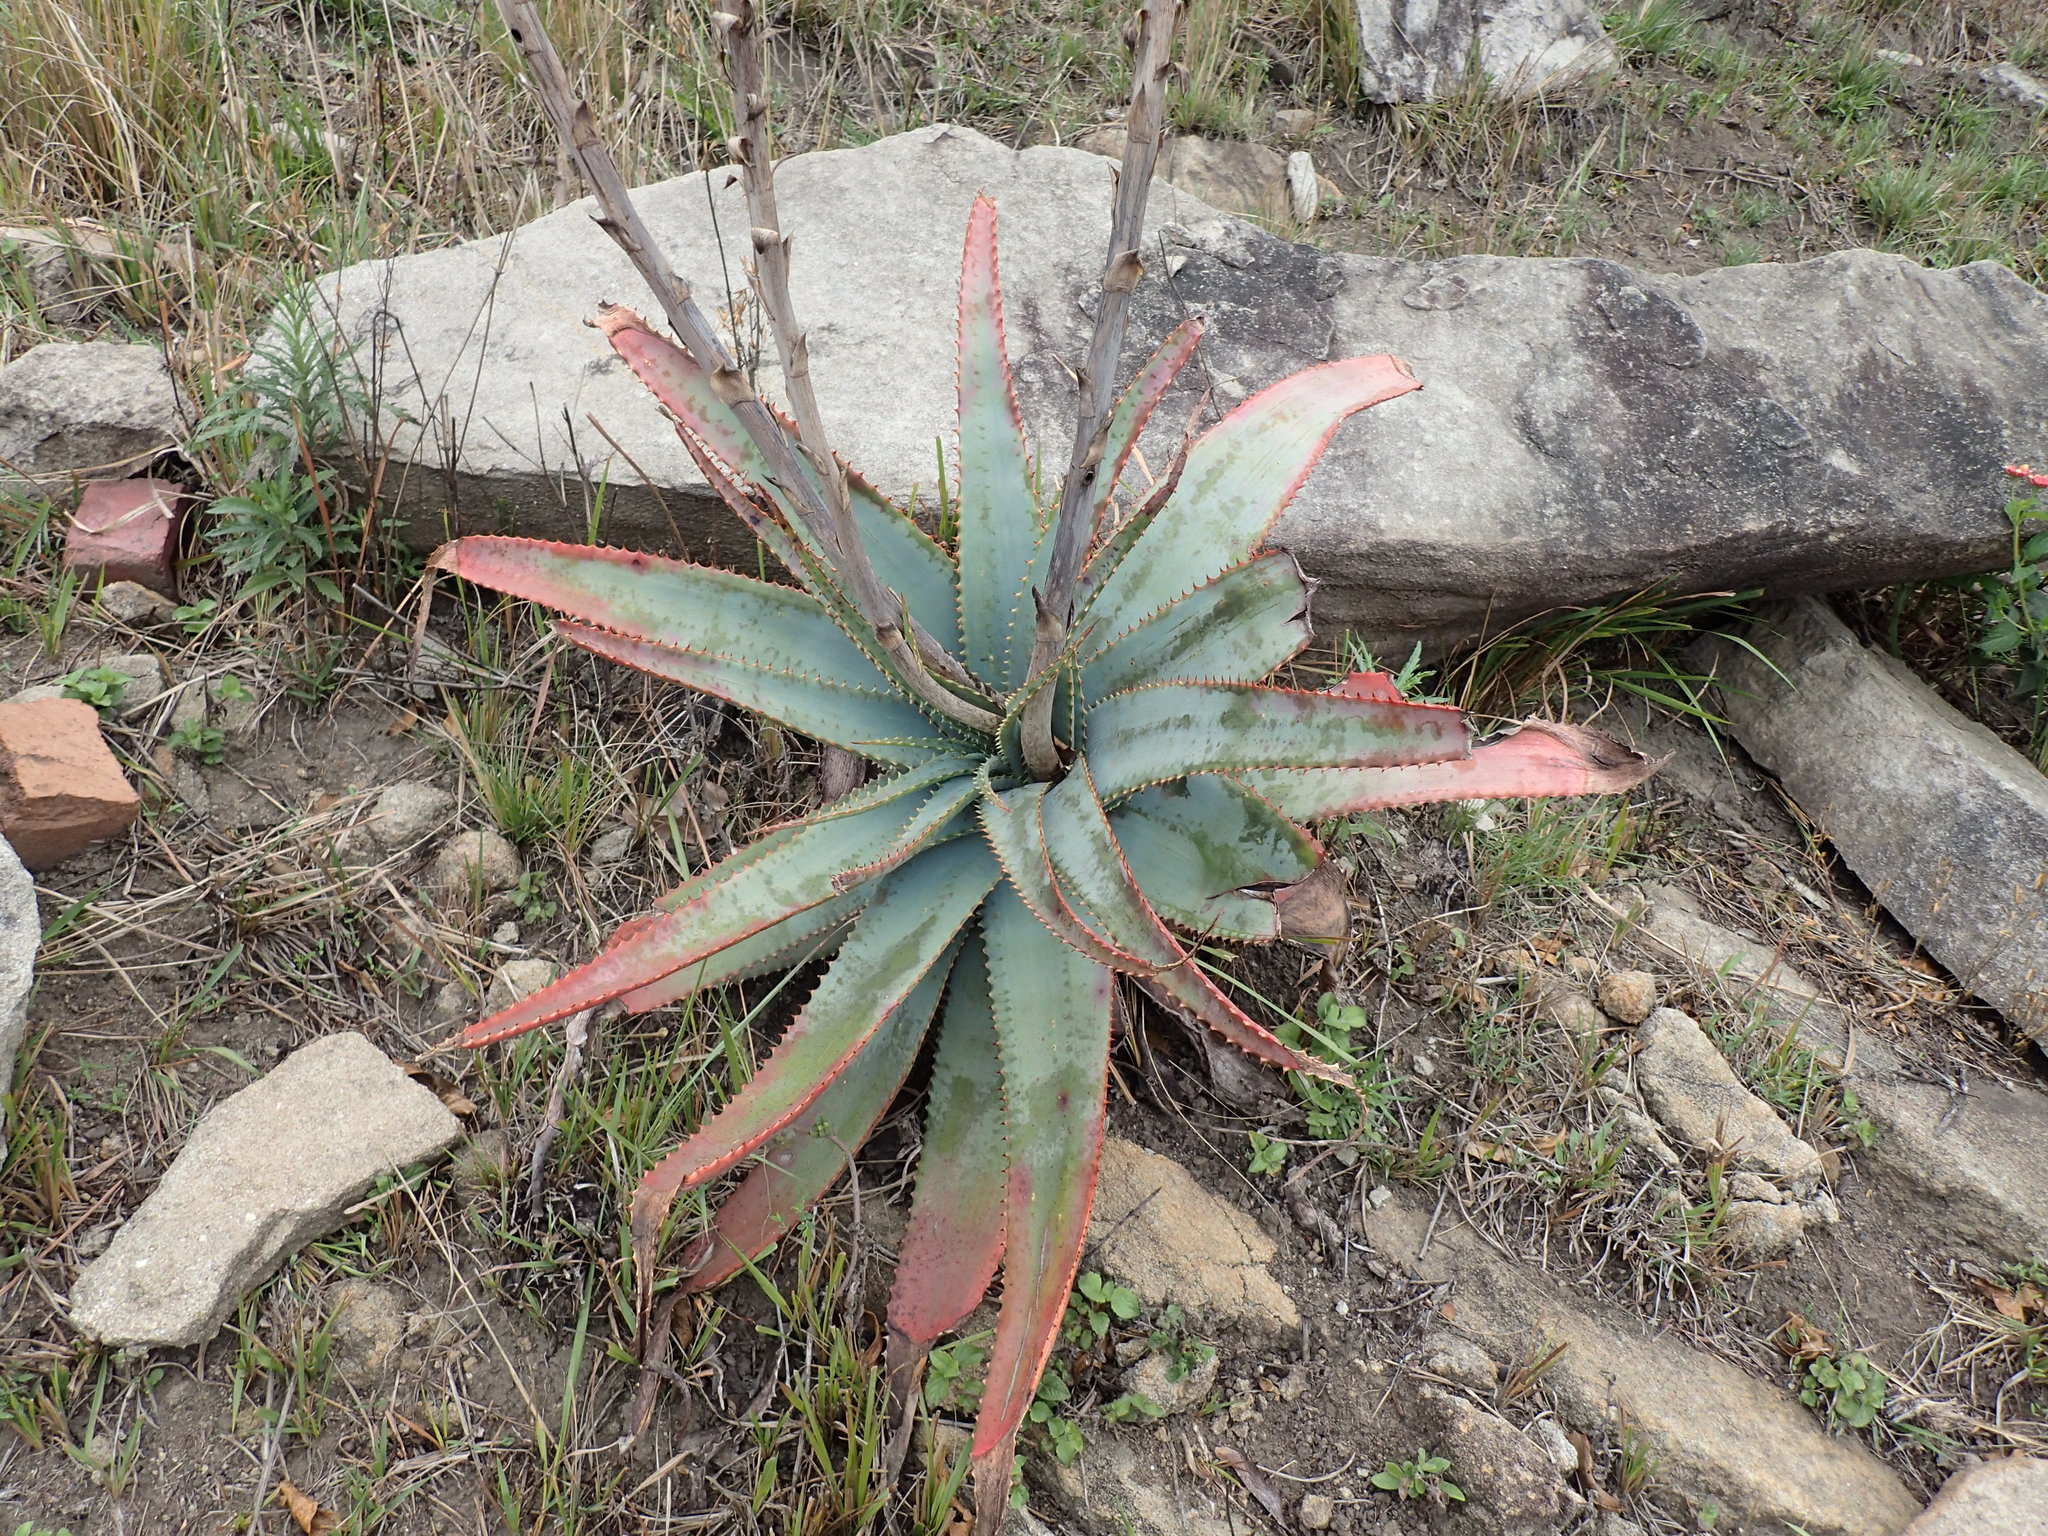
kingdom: Plantae
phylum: Tracheophyta
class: Liliopsida
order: Asparagales
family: Asphodelaceae
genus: Aloe
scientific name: Aloe suprafoliata
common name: Book aloe
